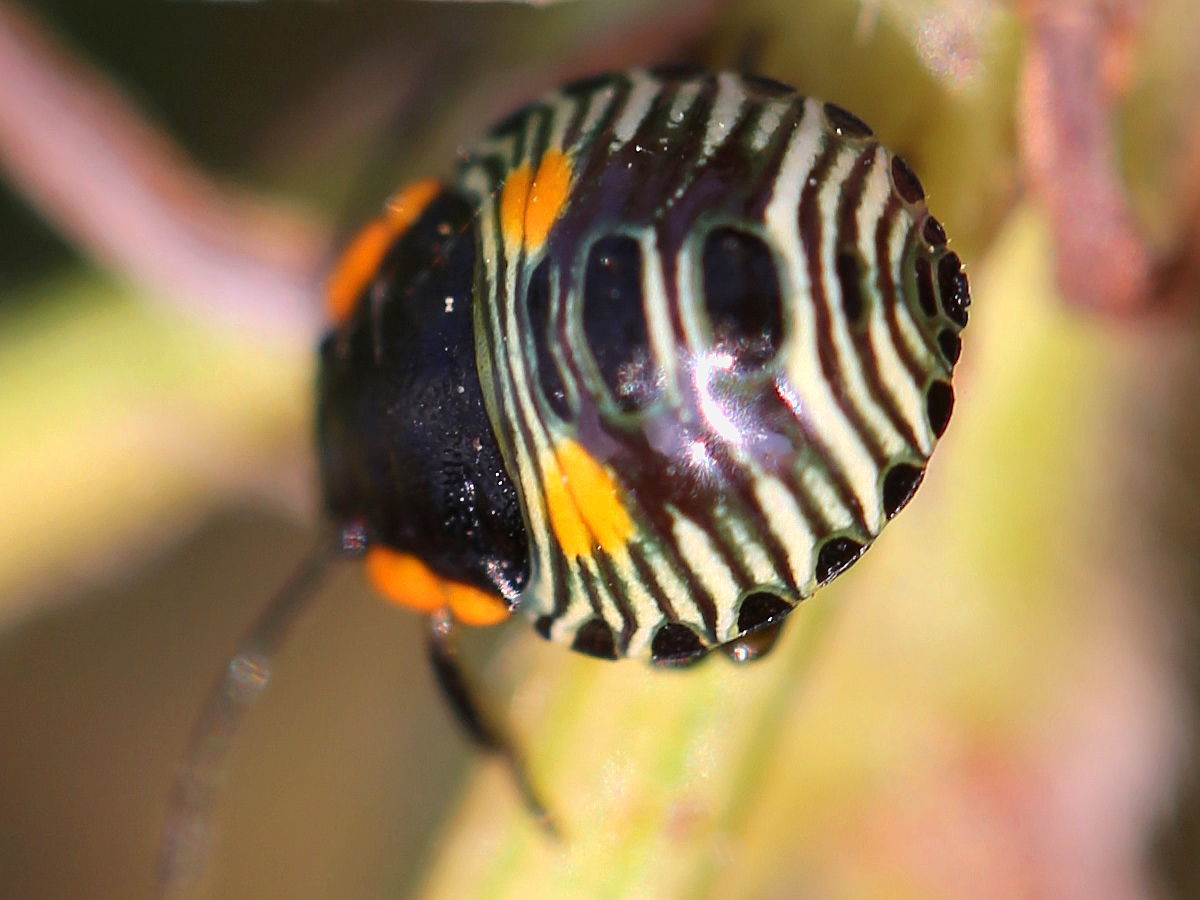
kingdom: Animalia
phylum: Arthropoda
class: Insecta
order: Hemiptera
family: Pentatomidae
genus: Chinavia
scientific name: Chinavia hilaris
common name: Green stink bug
